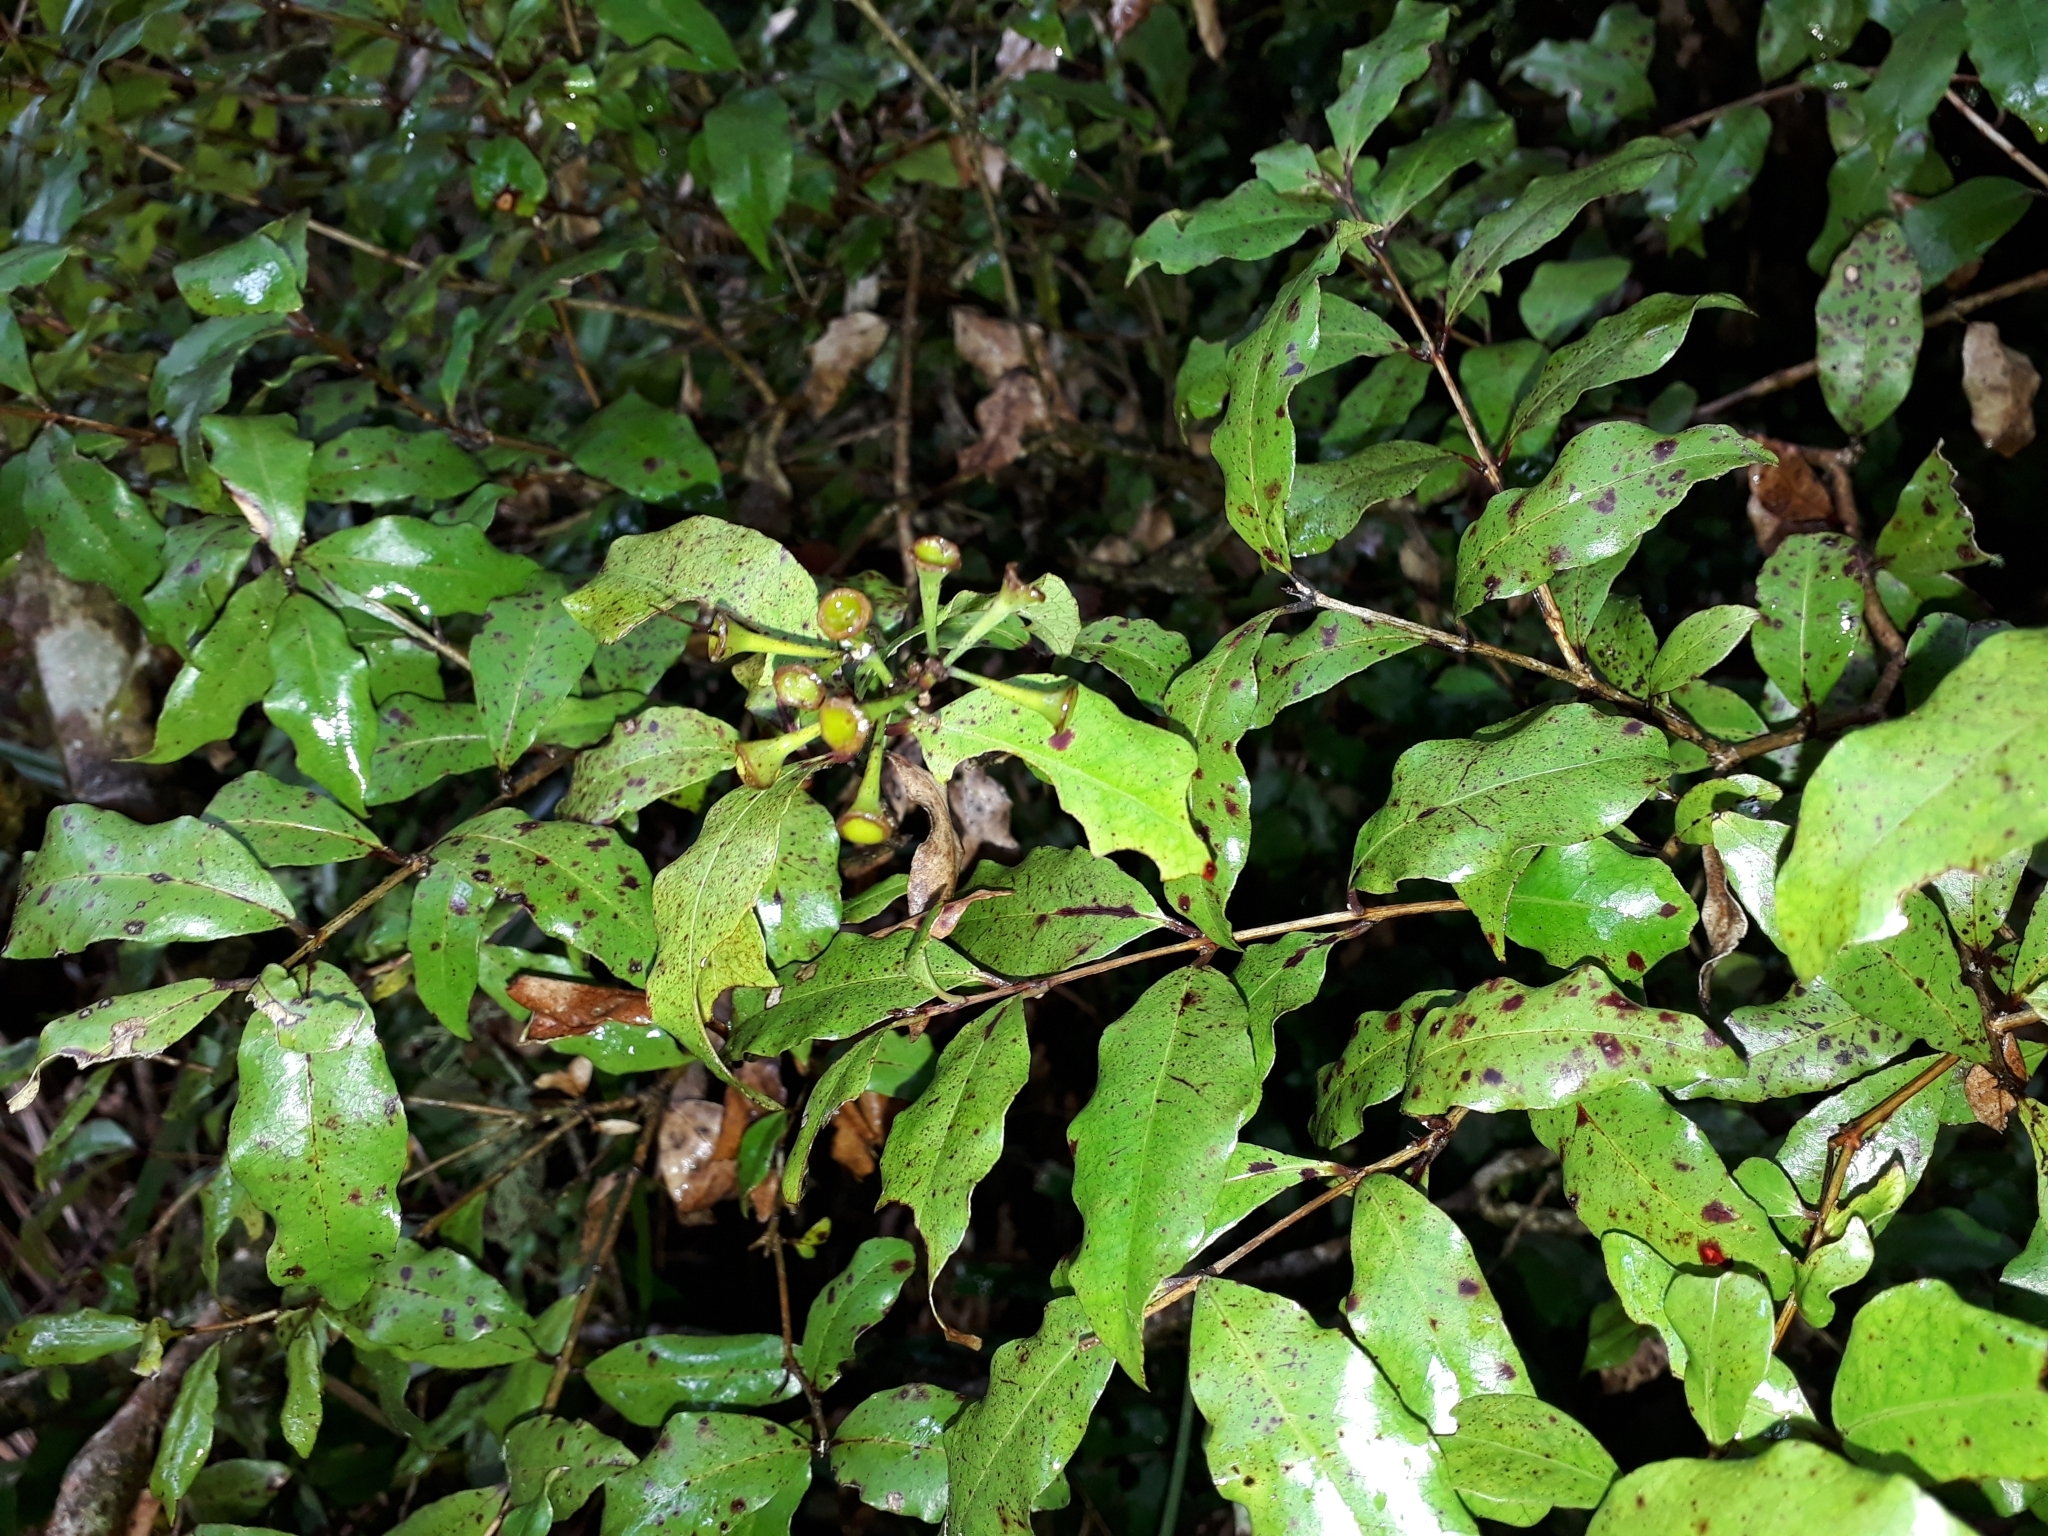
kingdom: Plantae
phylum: Tracheophyta
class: Magnoliopsida
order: Myrtales
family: Myrtaceae
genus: Syzygium
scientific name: Syzygium maire
